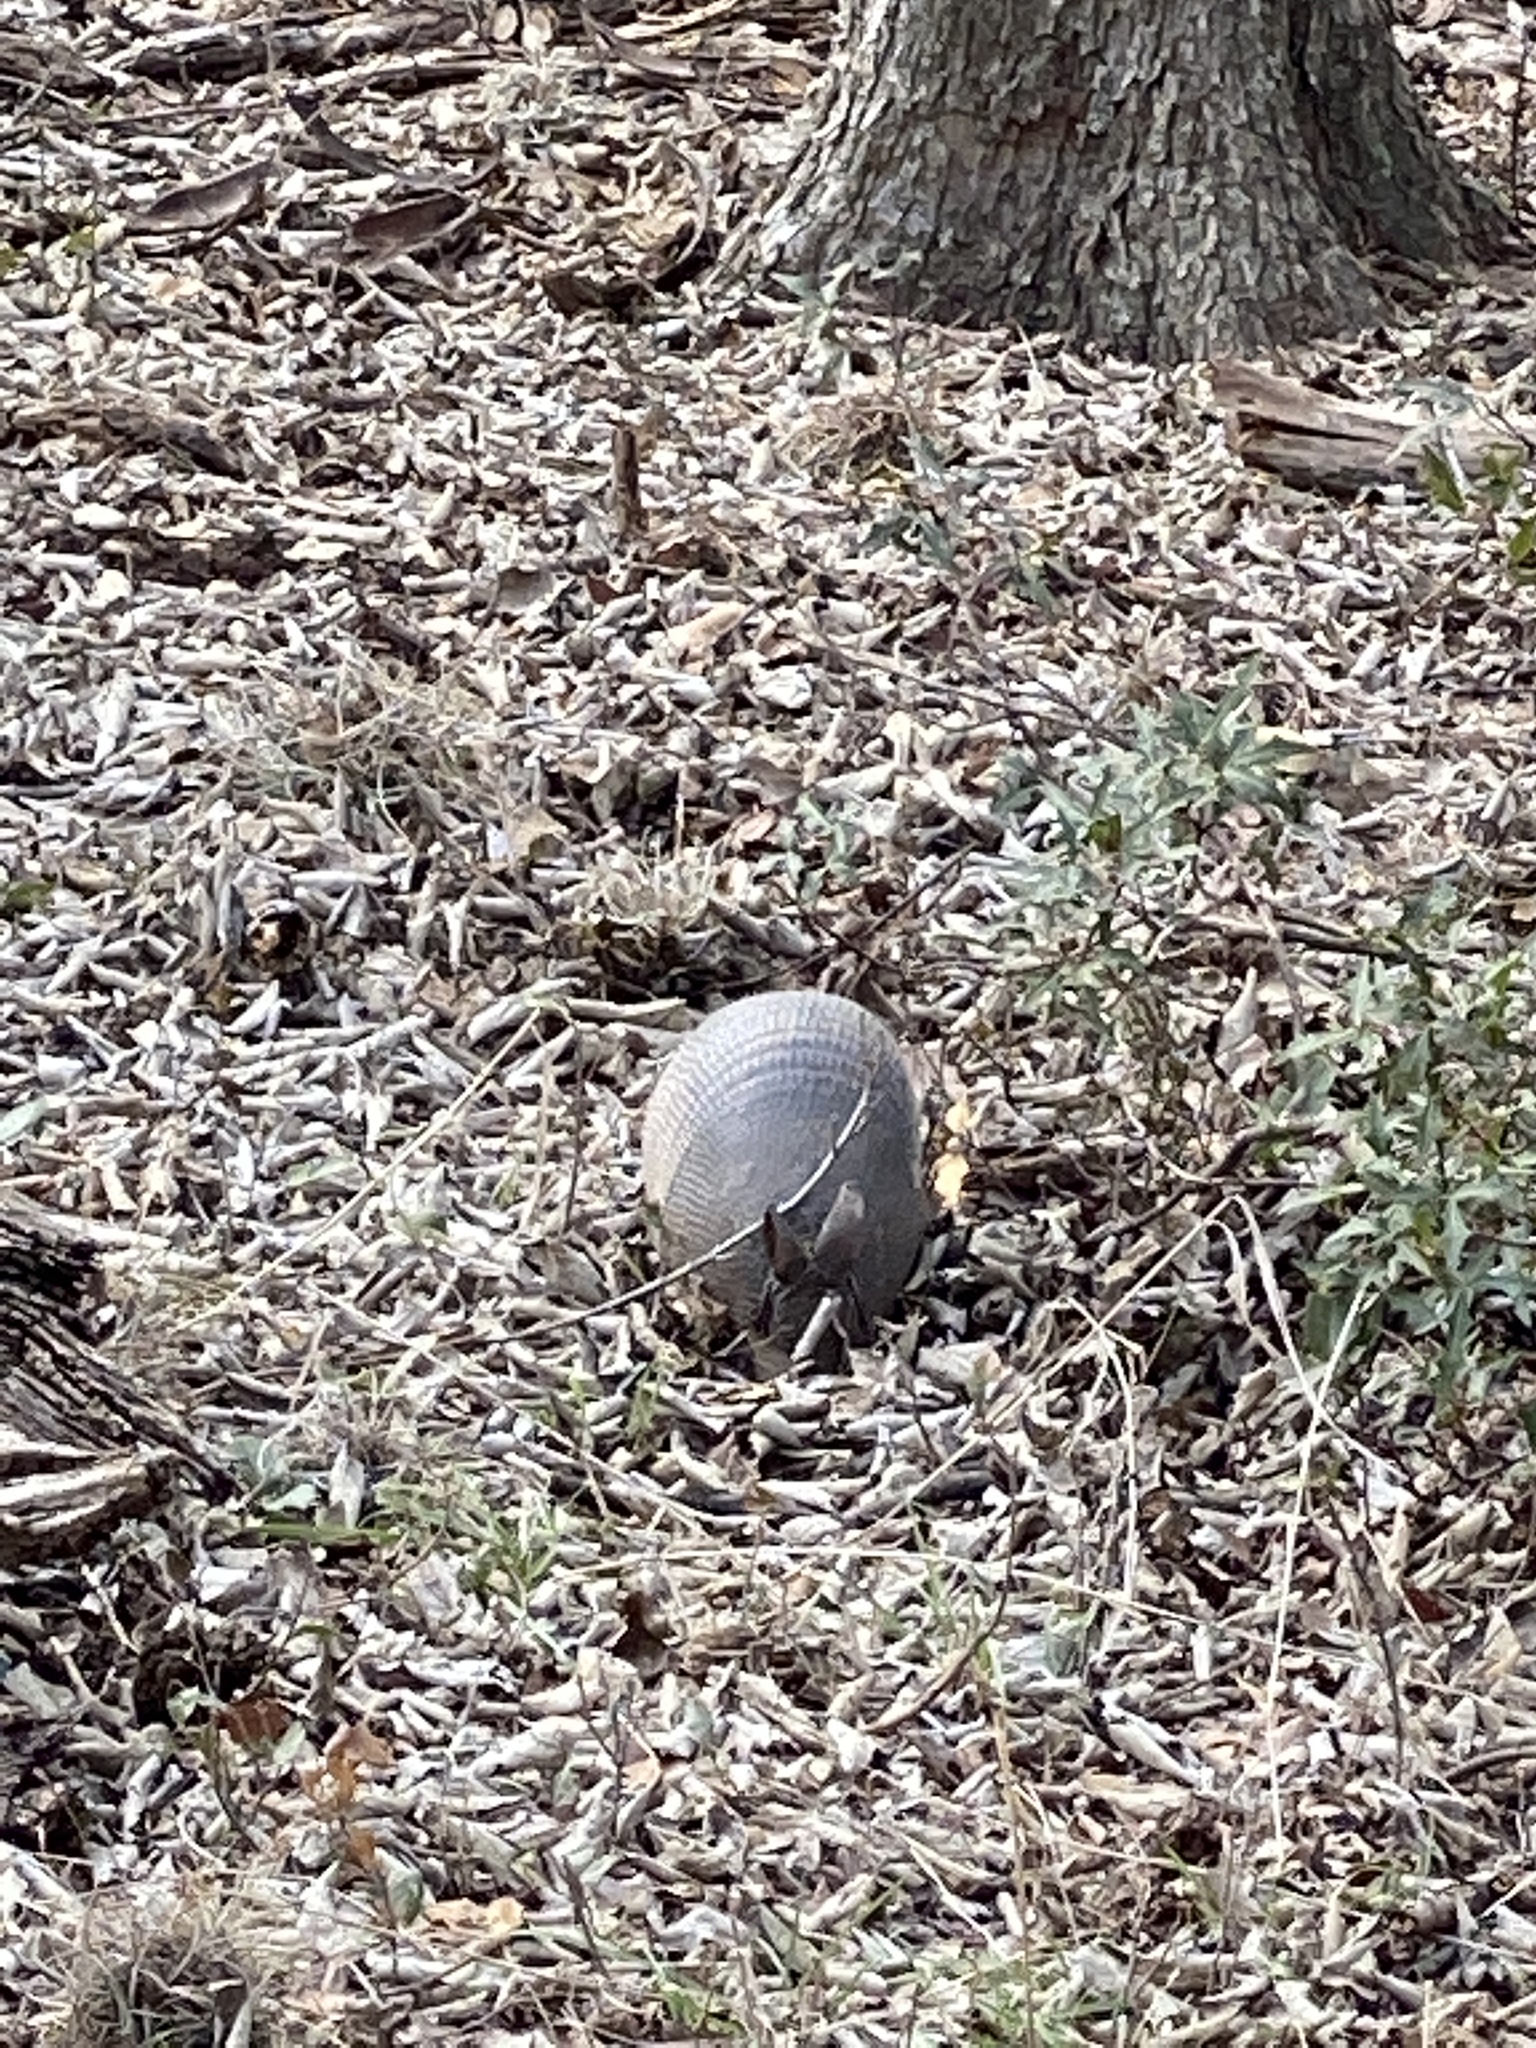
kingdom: Animalia
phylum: Chordata
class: Mammalia
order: Cingulata
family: Dasypodidae
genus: Dasypus
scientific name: Dasypus novemcinctus
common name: Nine-banded armadillo
